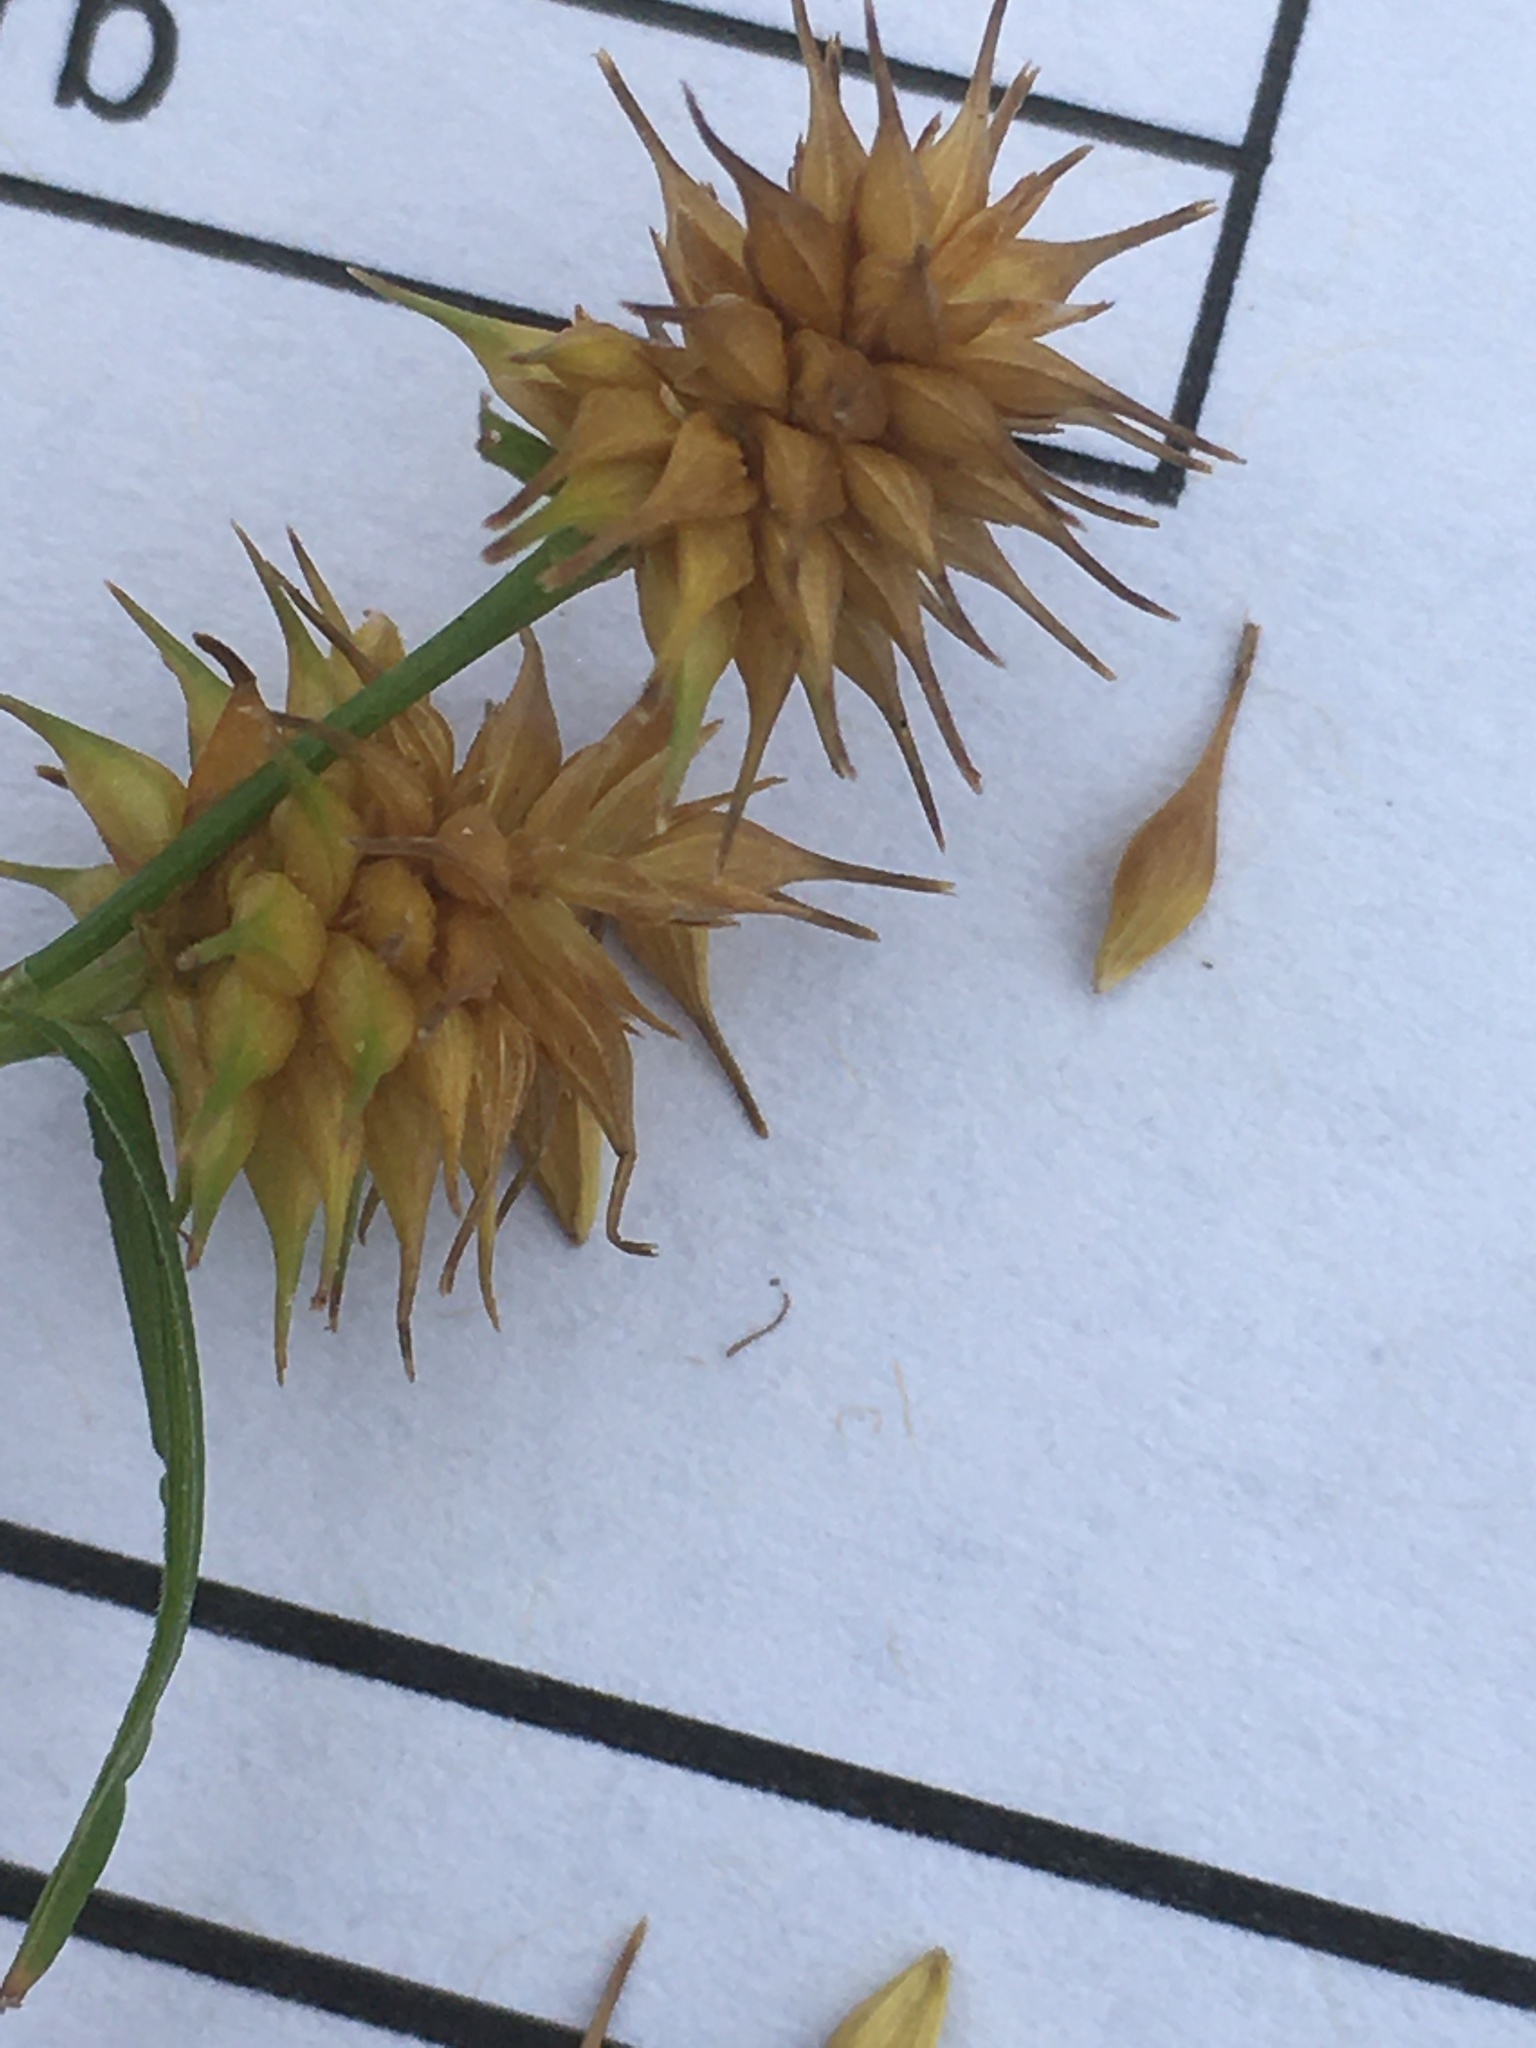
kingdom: Plantae
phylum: Tracheophyta
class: Liliopsida
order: Poales
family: Cyperaceae
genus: Carex
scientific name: Carex flava
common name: Large yellow-sedge
